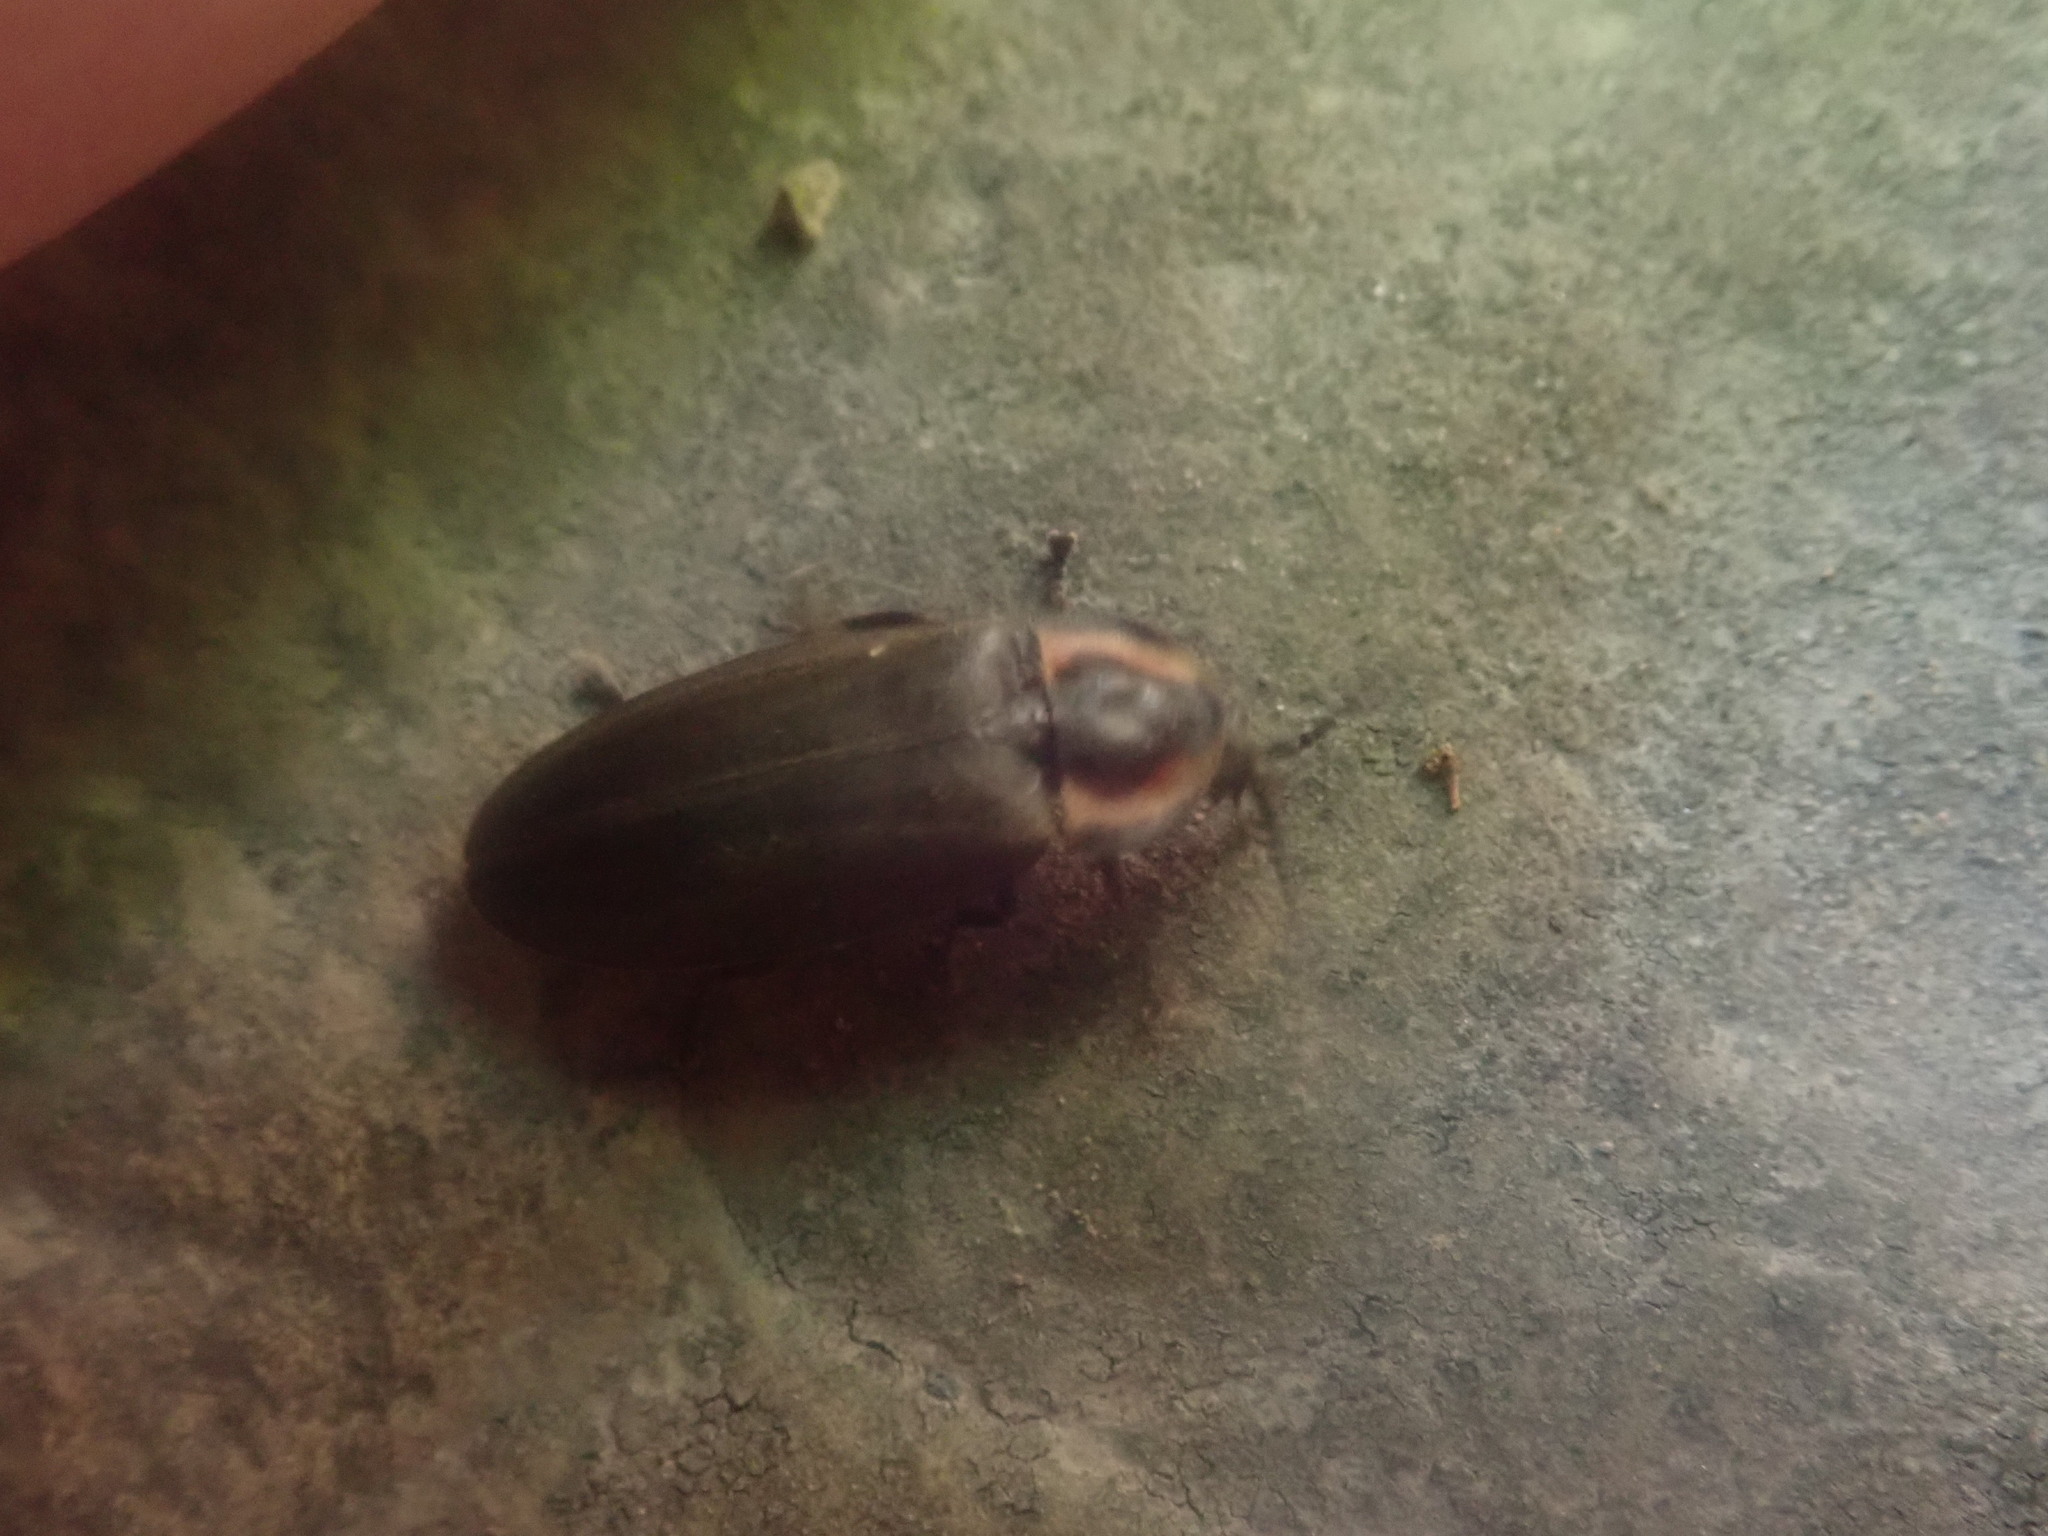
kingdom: Animalia
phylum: Arthropoda
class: Insecta
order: Coleoptera
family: Lampyridae
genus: Photinus
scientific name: Photinus corrusca
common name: Winter firefly
